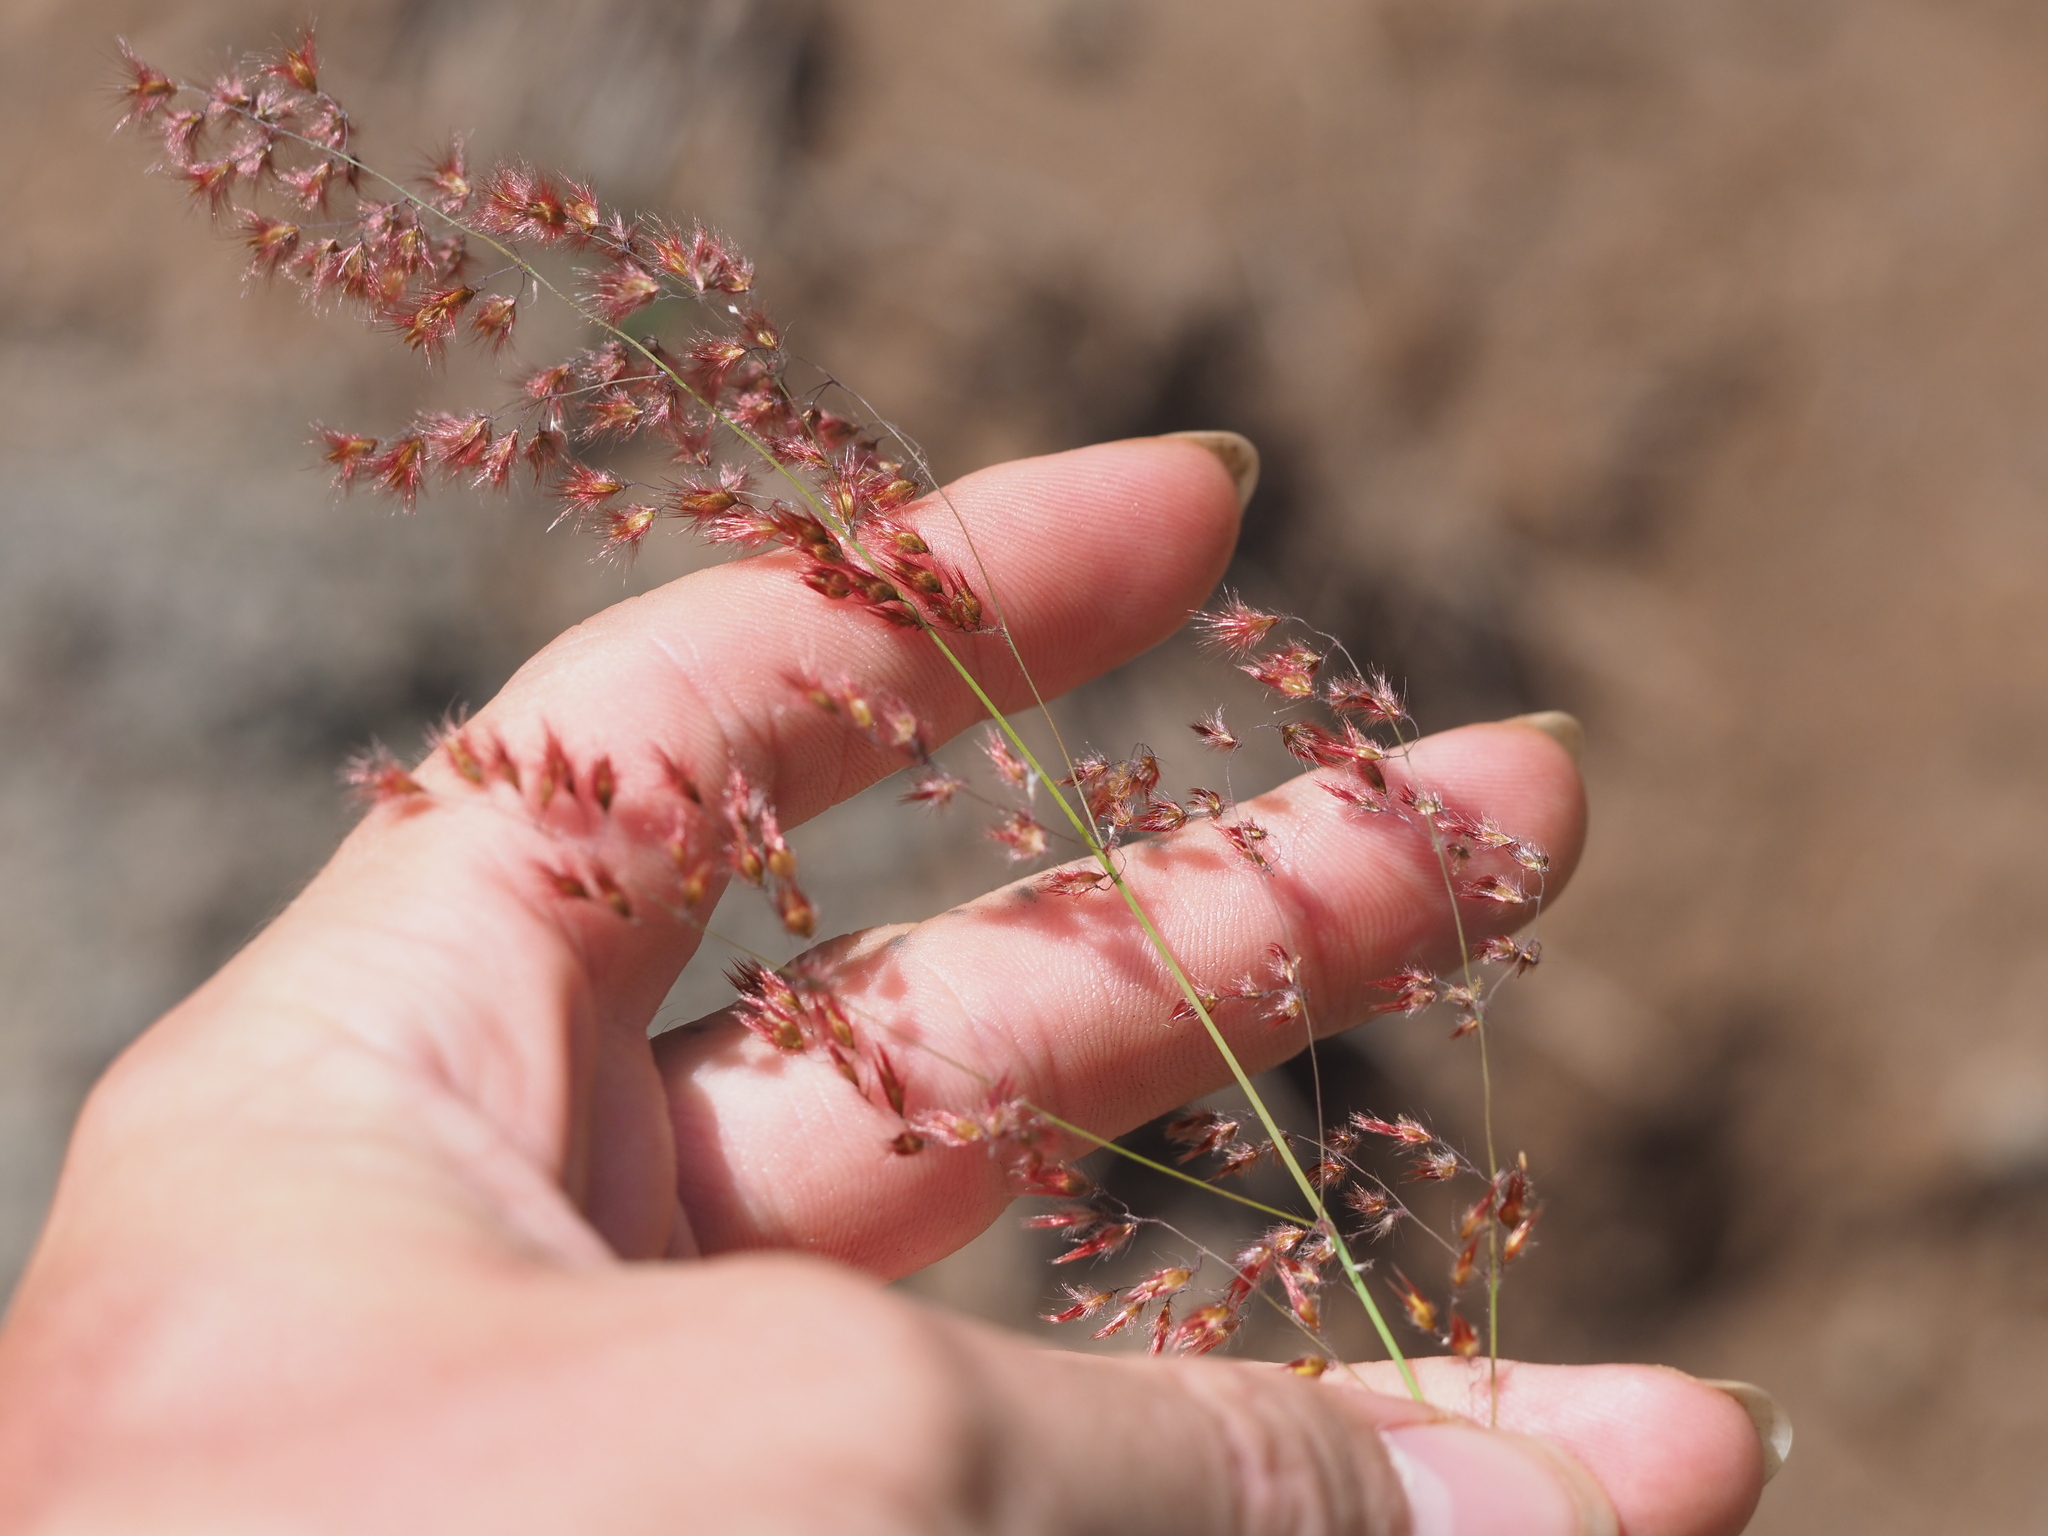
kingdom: Plantae
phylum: Tracheophyta
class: Liliopsida
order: Poales
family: Poaceae
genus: Melinis
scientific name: Melinis repens
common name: Rose natal grass
